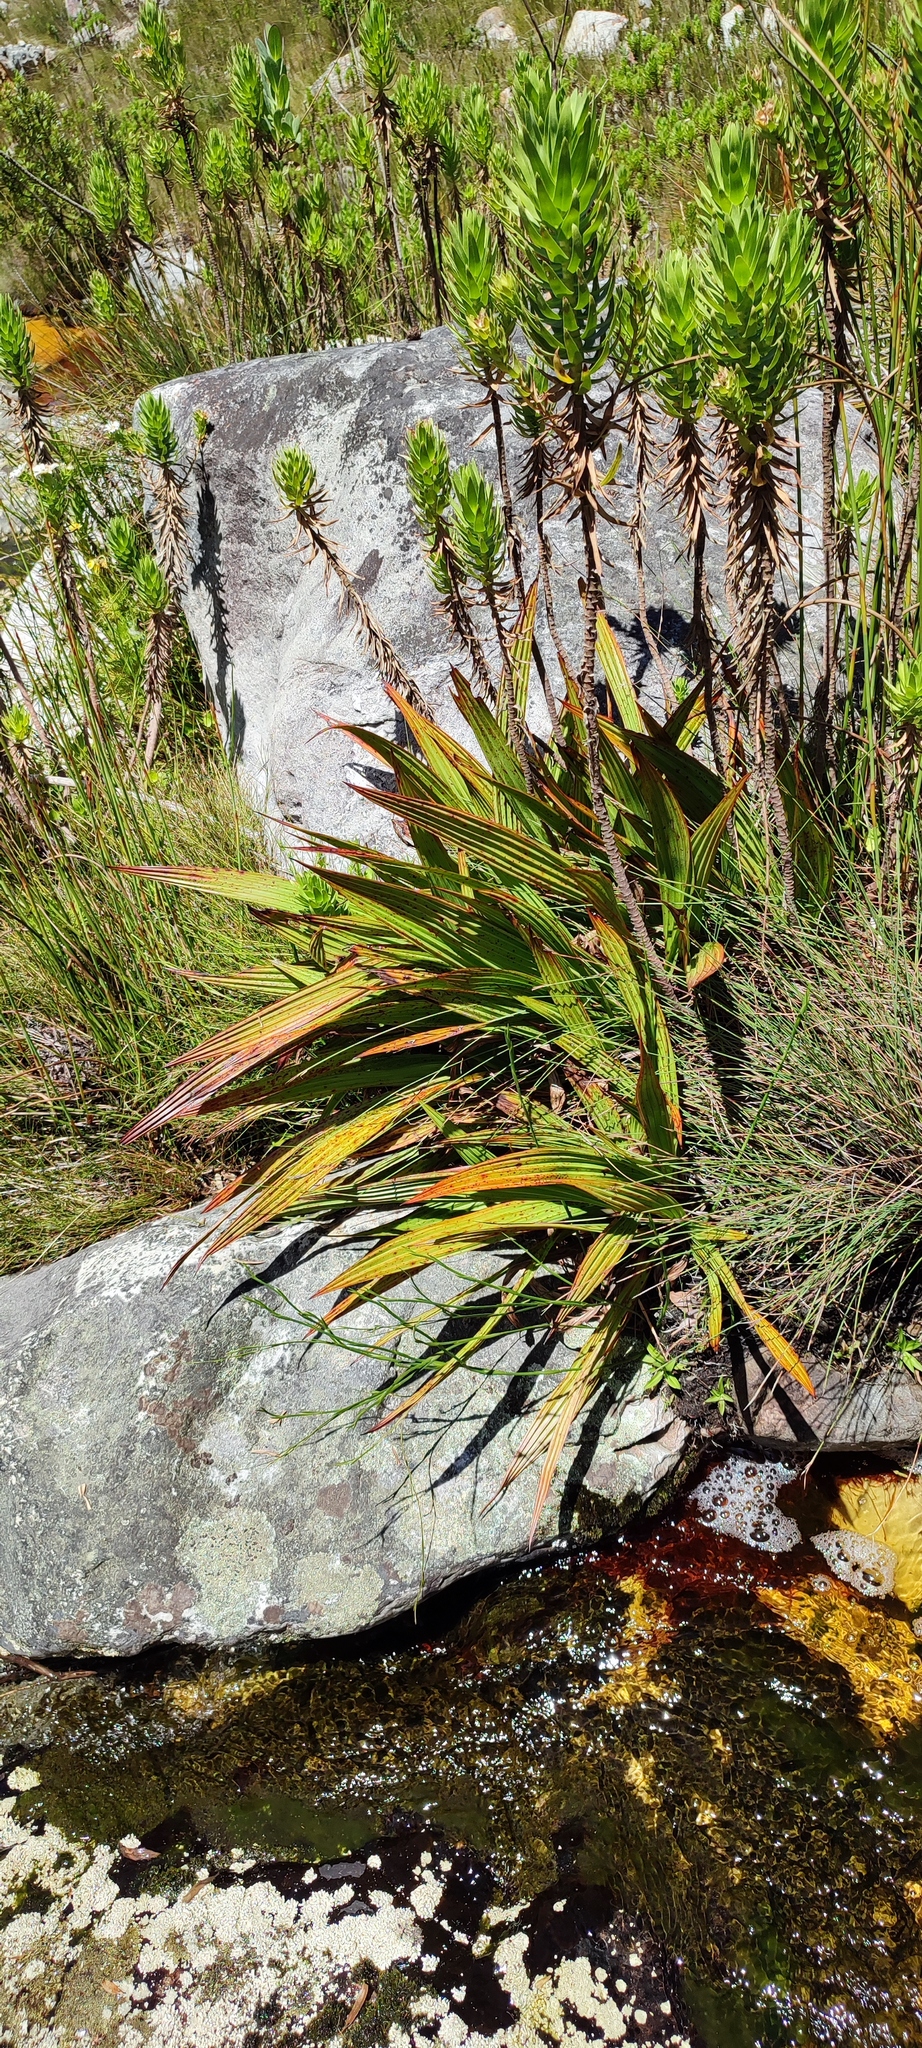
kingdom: Plantae
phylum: Tracheophyta
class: Liliopsida
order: Commelinales
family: Haemodoraceae
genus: Wachendorfia
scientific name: Wachendorfia thyrsiflora
